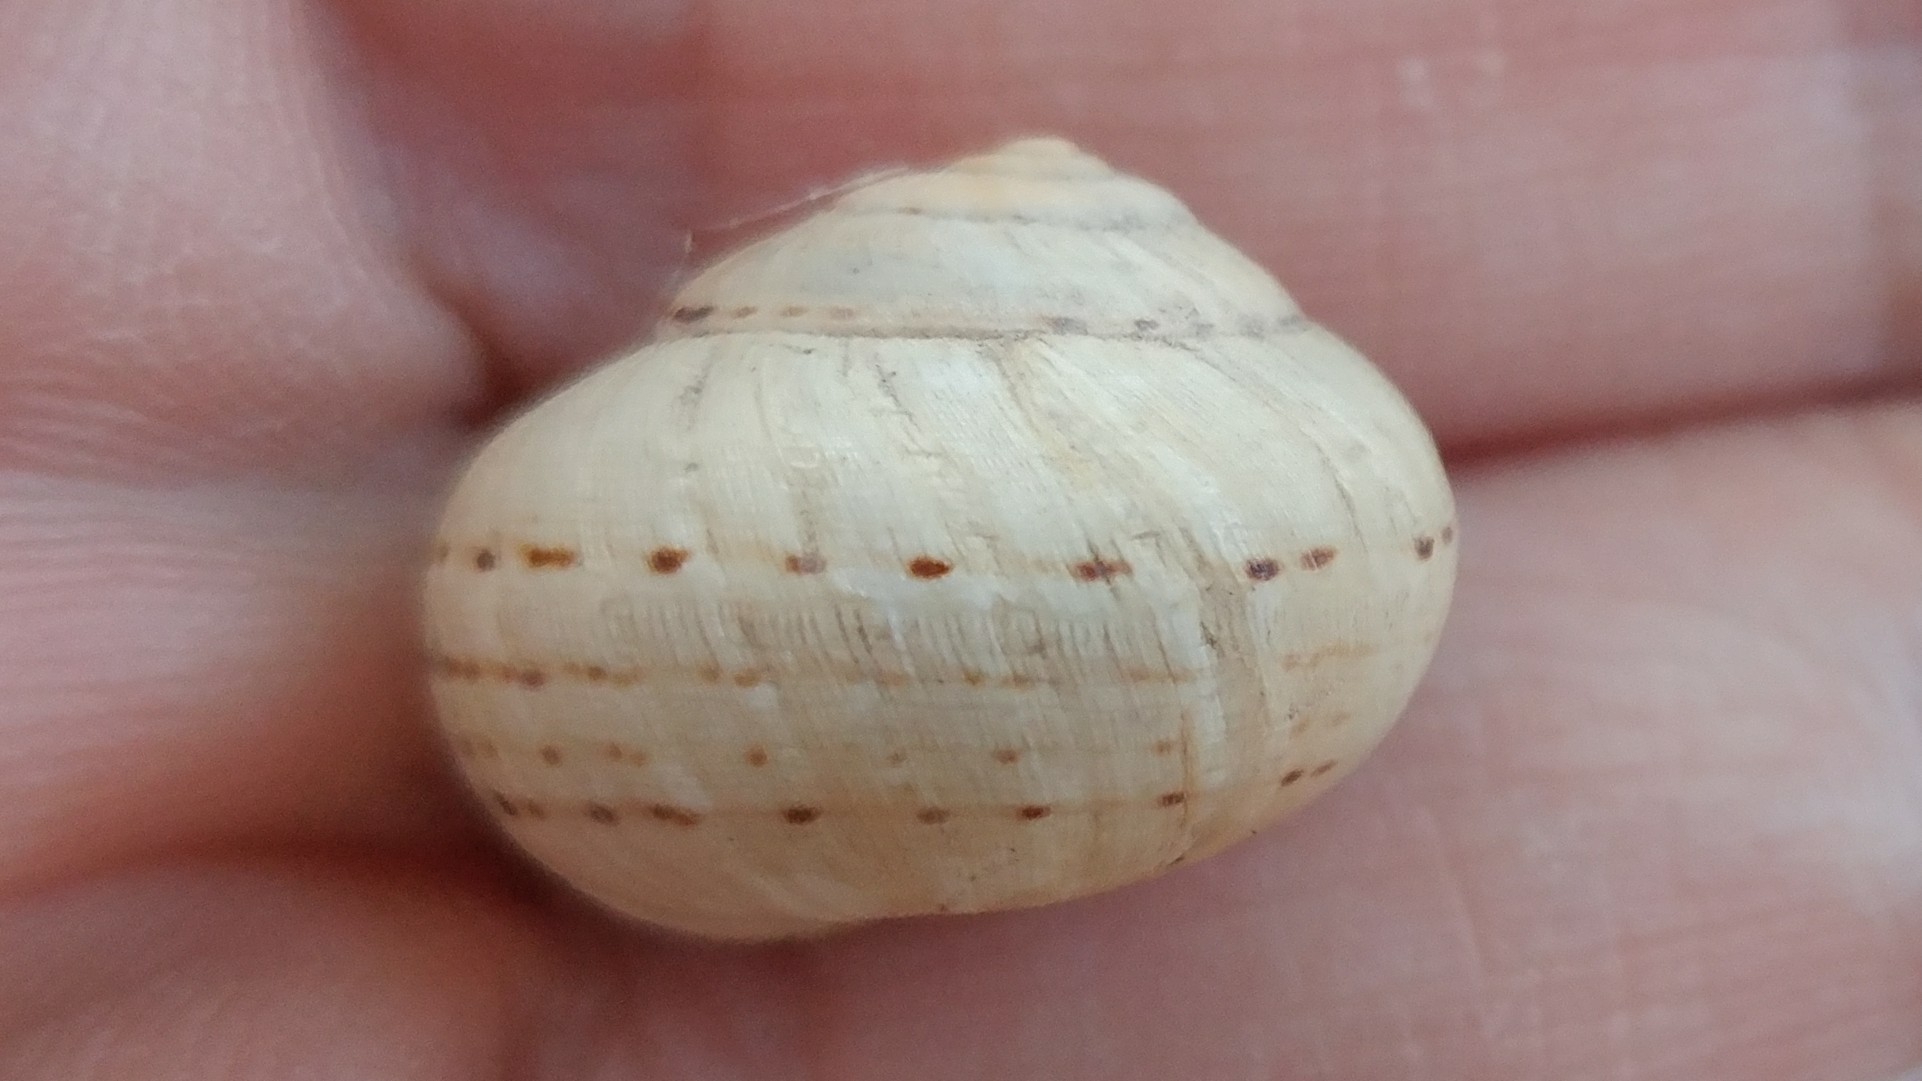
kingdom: Animalia
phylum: Mollusca
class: Gastropoda
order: Stylommatophora
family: Helicidae
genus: Theba
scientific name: Theba pisana
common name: White snail
